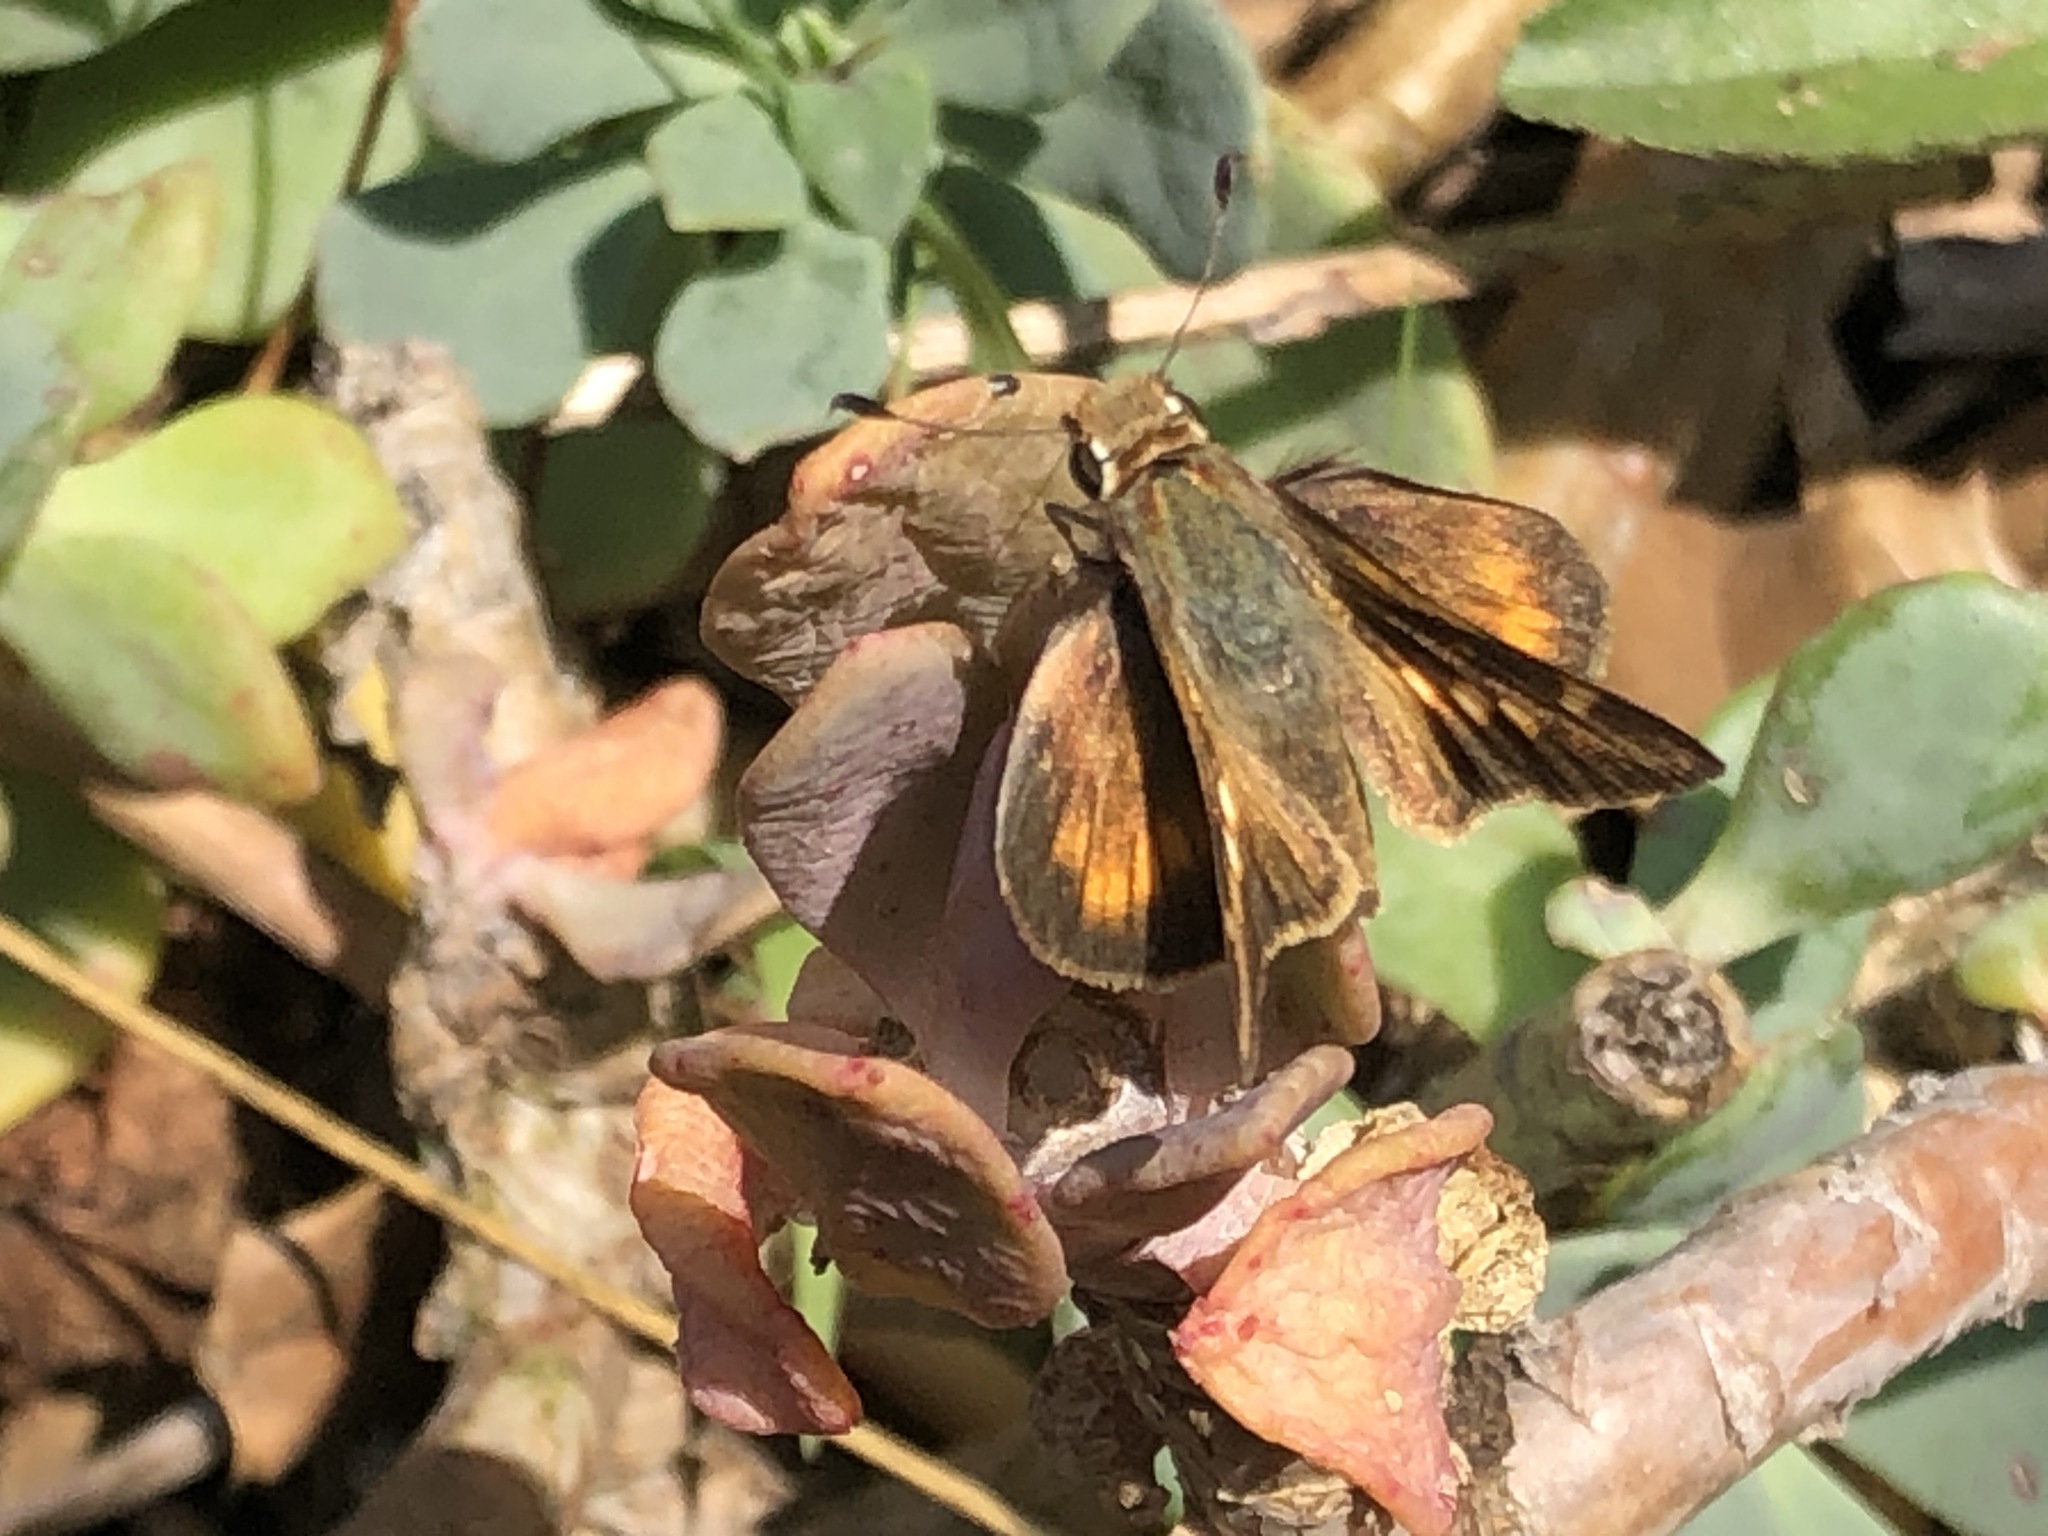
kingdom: Animalia
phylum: Arthropoda
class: Insecta
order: Lepidoptera
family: Hesperiidae
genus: Lon
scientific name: Lon melane
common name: Umber skipper
